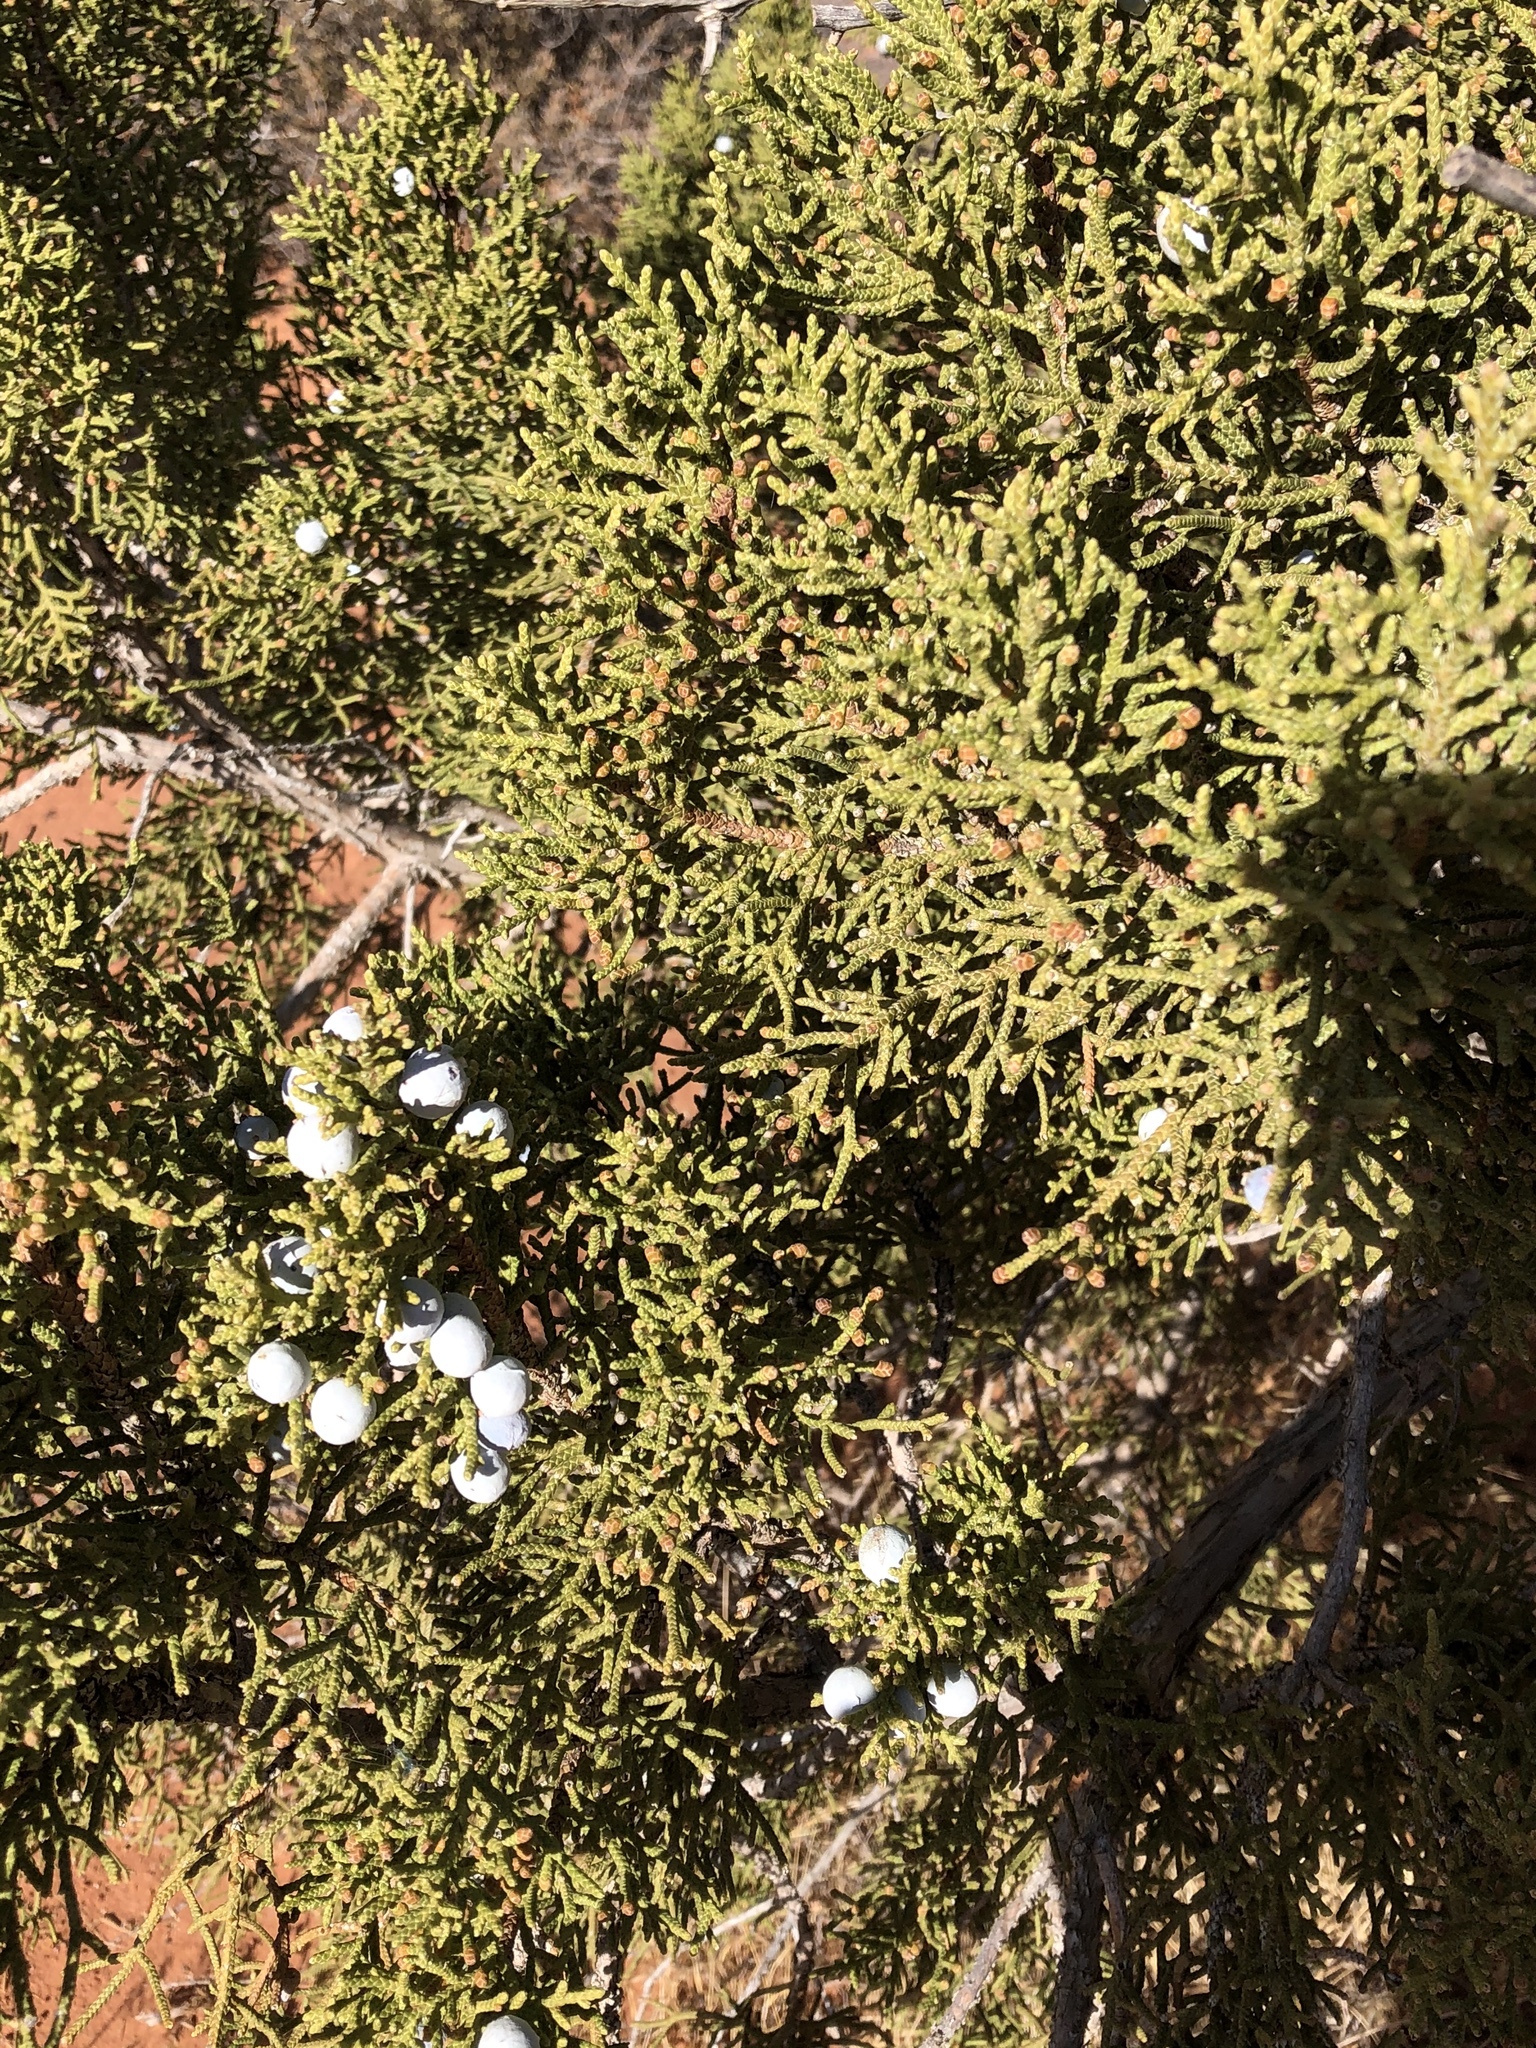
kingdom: Plantae
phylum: Tracheophyta
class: Pinopsida
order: Pinales
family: Cupressaceae
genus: Juniperus
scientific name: Juniperus osteosperma
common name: Utah juniper
